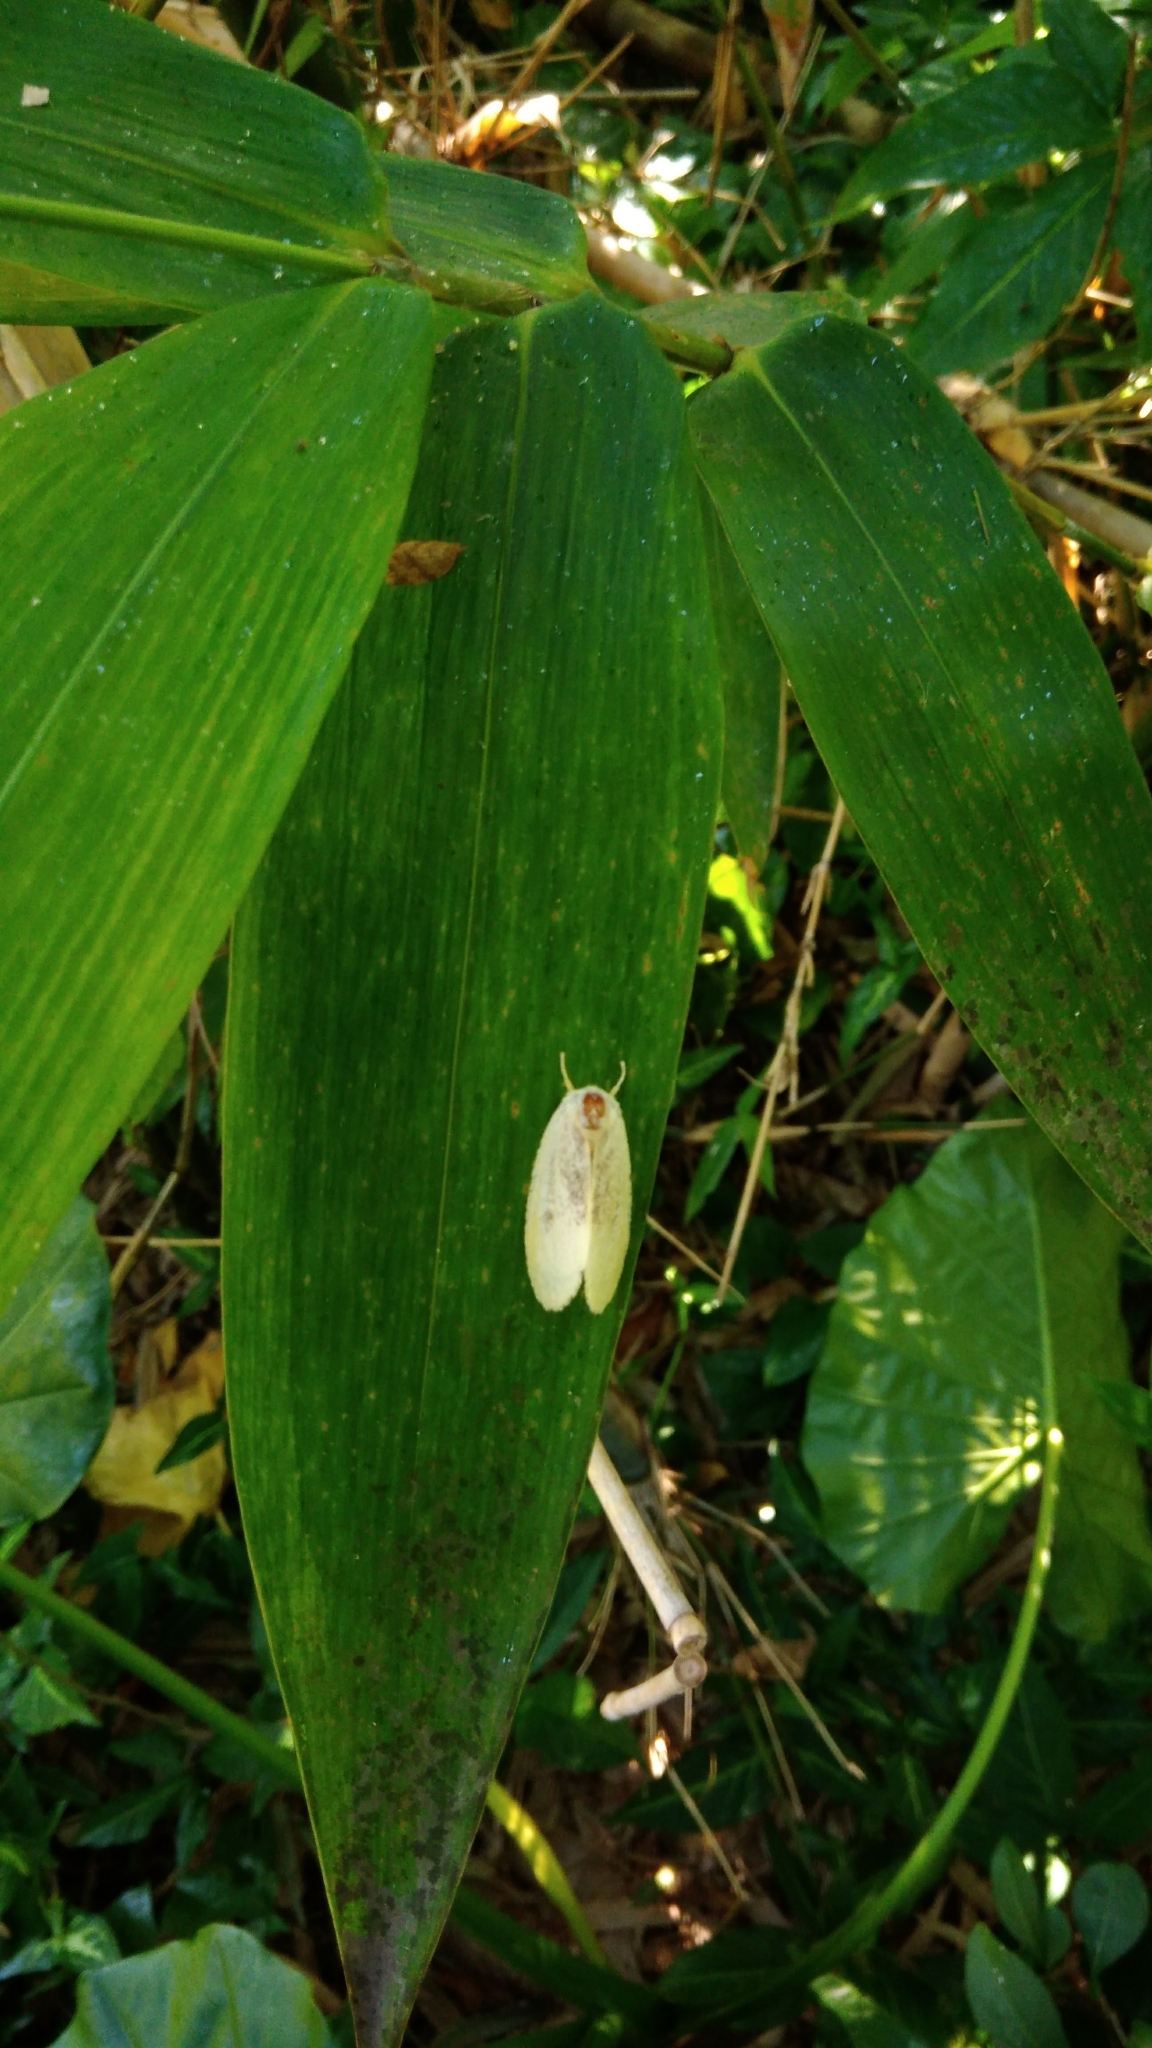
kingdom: Animalia
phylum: Arthropoda
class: Insecta
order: Lepidoptera
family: Erebidae
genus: Perina
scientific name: Perina nuda
